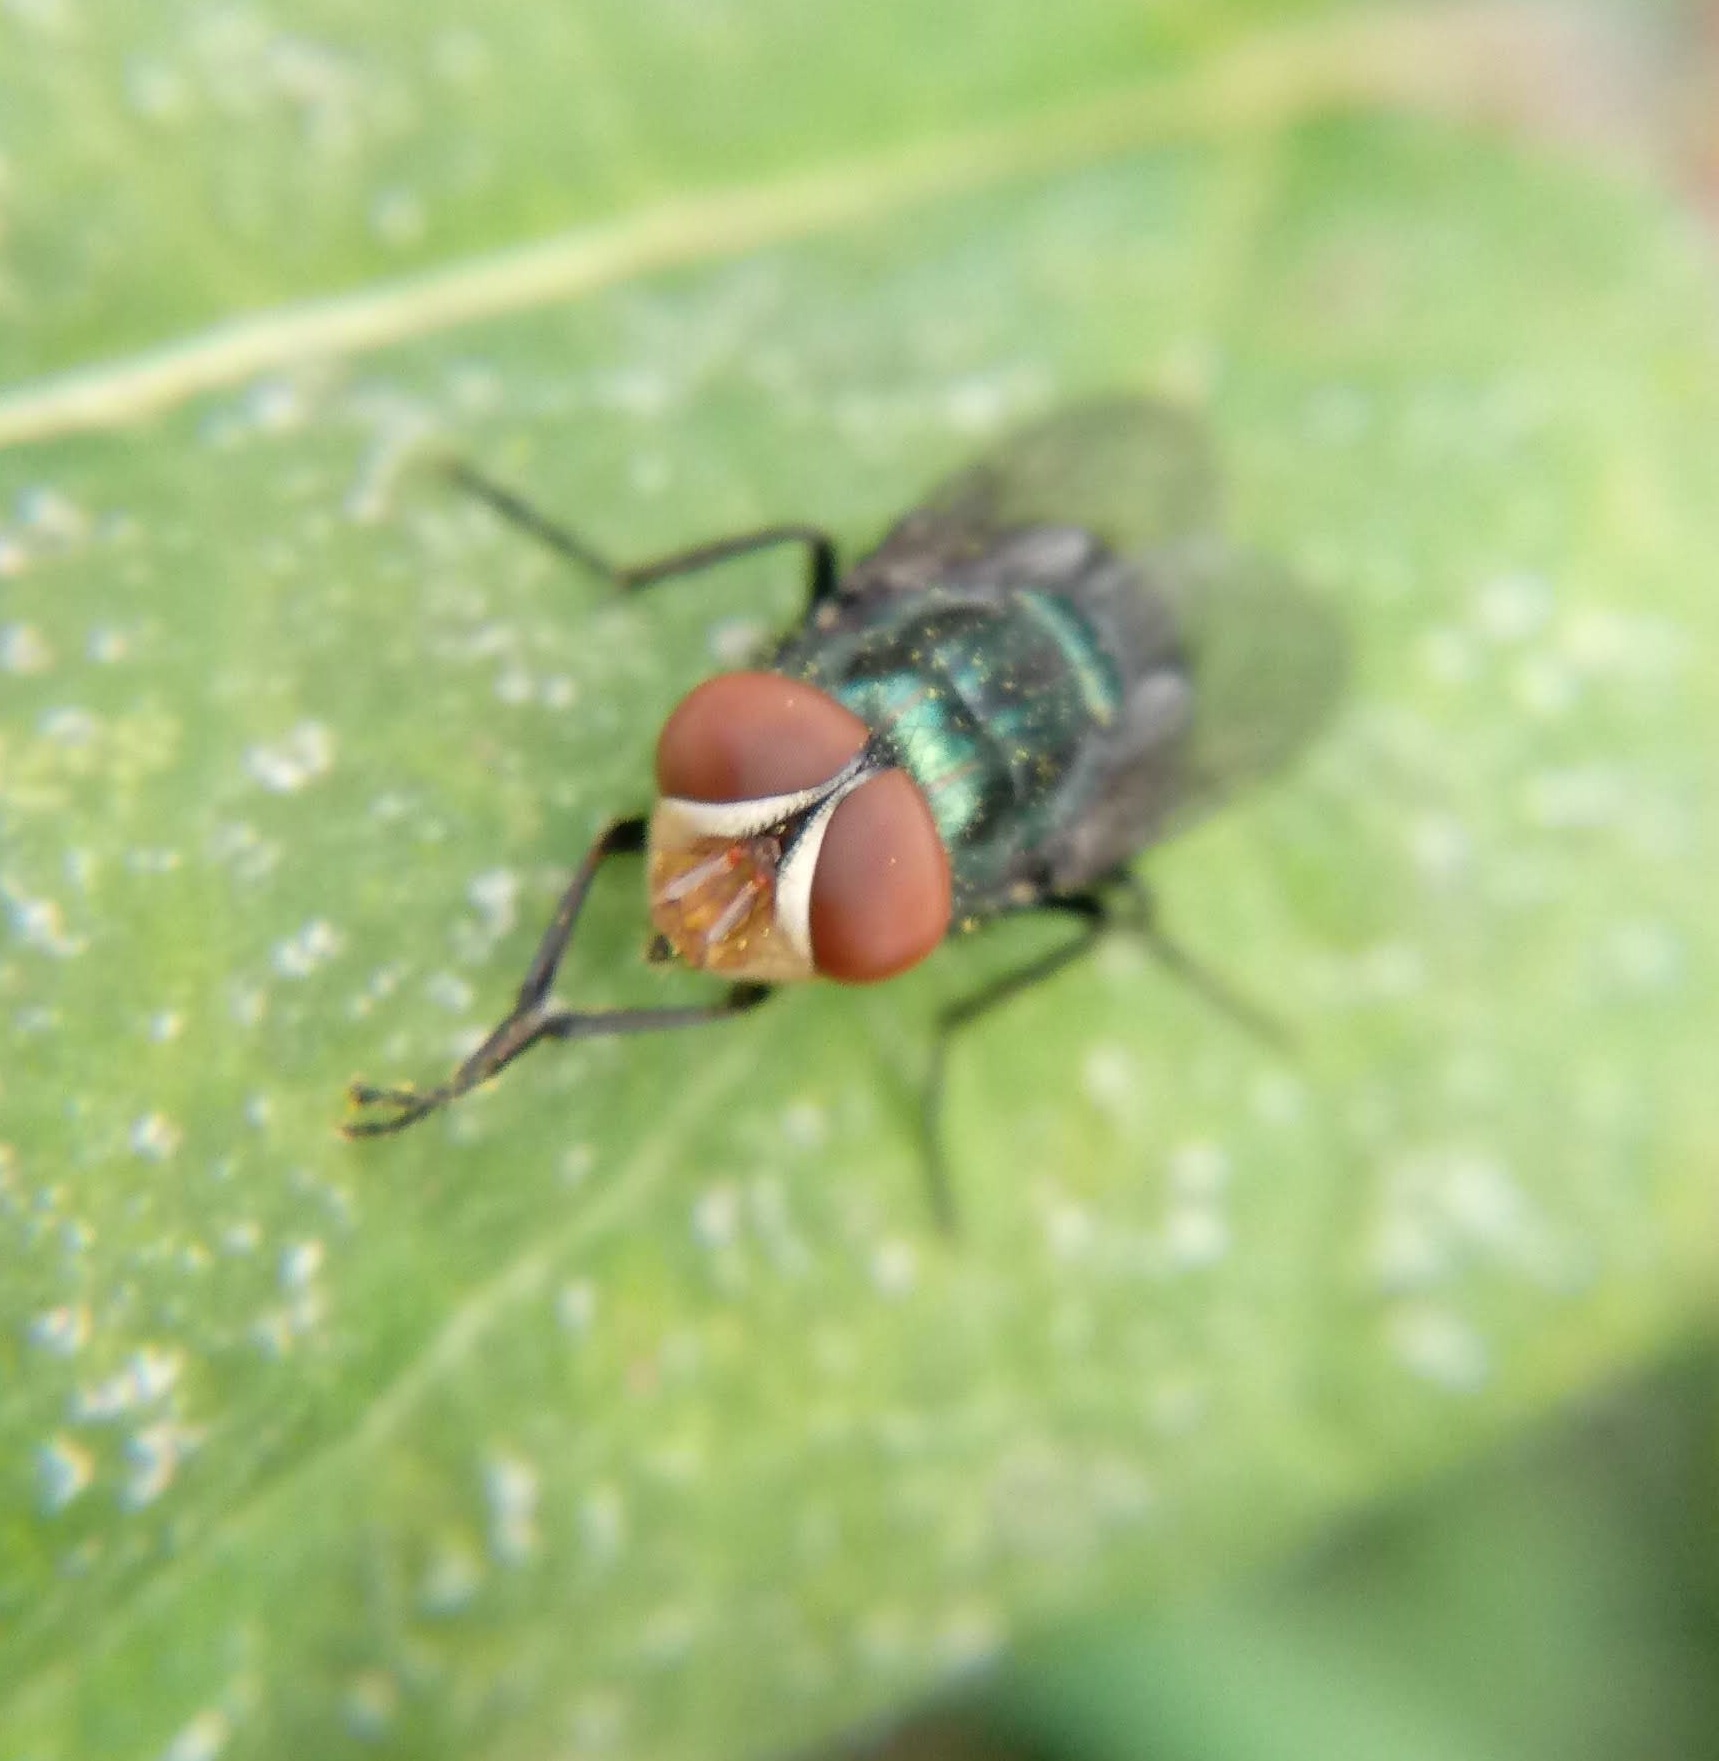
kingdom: Animalia
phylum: Arthropoda
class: Insecta
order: Diptera
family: Calliphoridae
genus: Cochliomyia
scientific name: Cochliomyia macellaria
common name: Secondary screwworm
